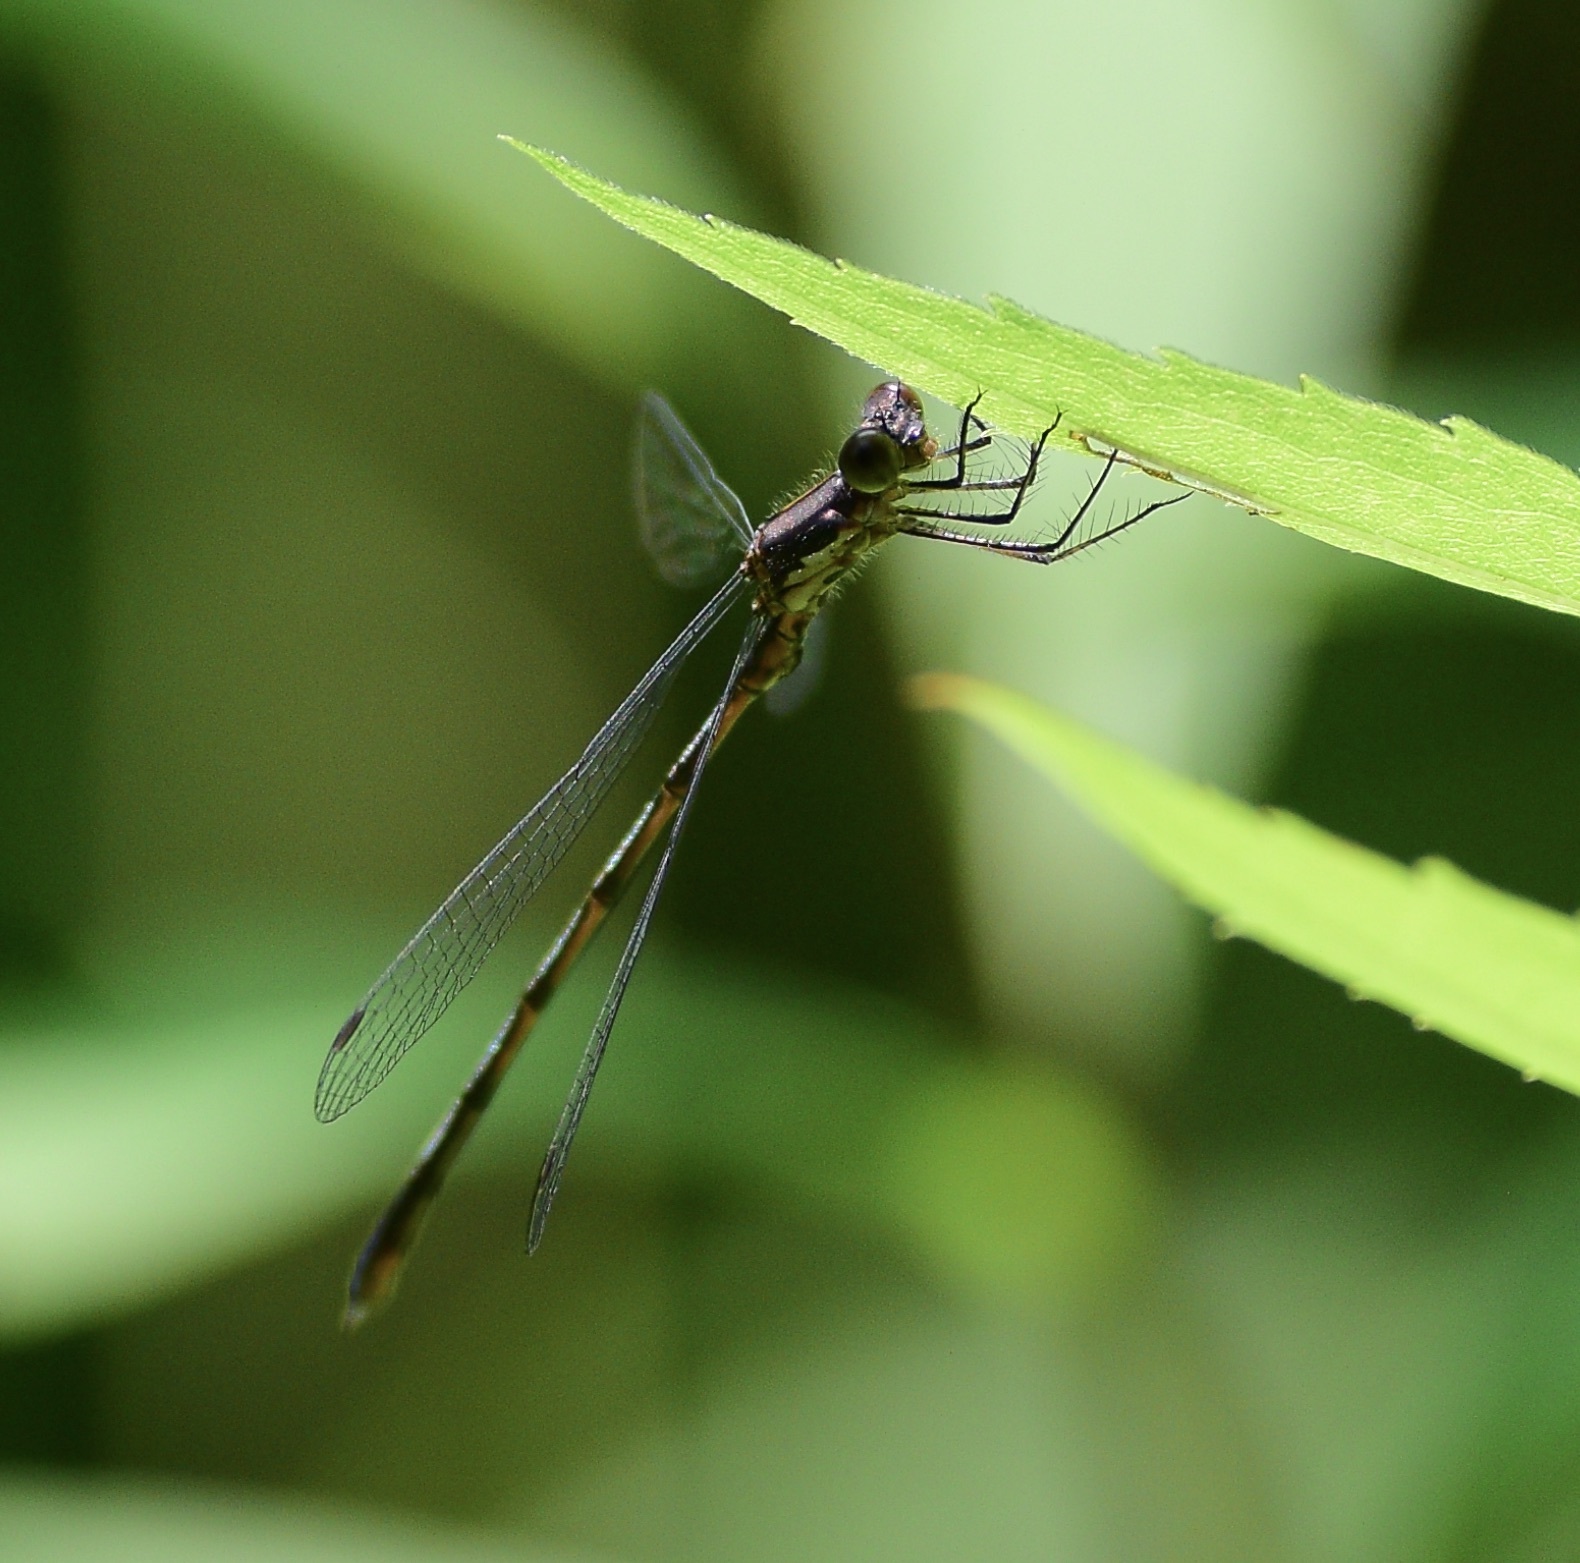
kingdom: Animalia
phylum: Arthropoda
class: Insecta
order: Odonata
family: Lestidae
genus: Lestes
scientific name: Lestes congener
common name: Spotted spreadwing
